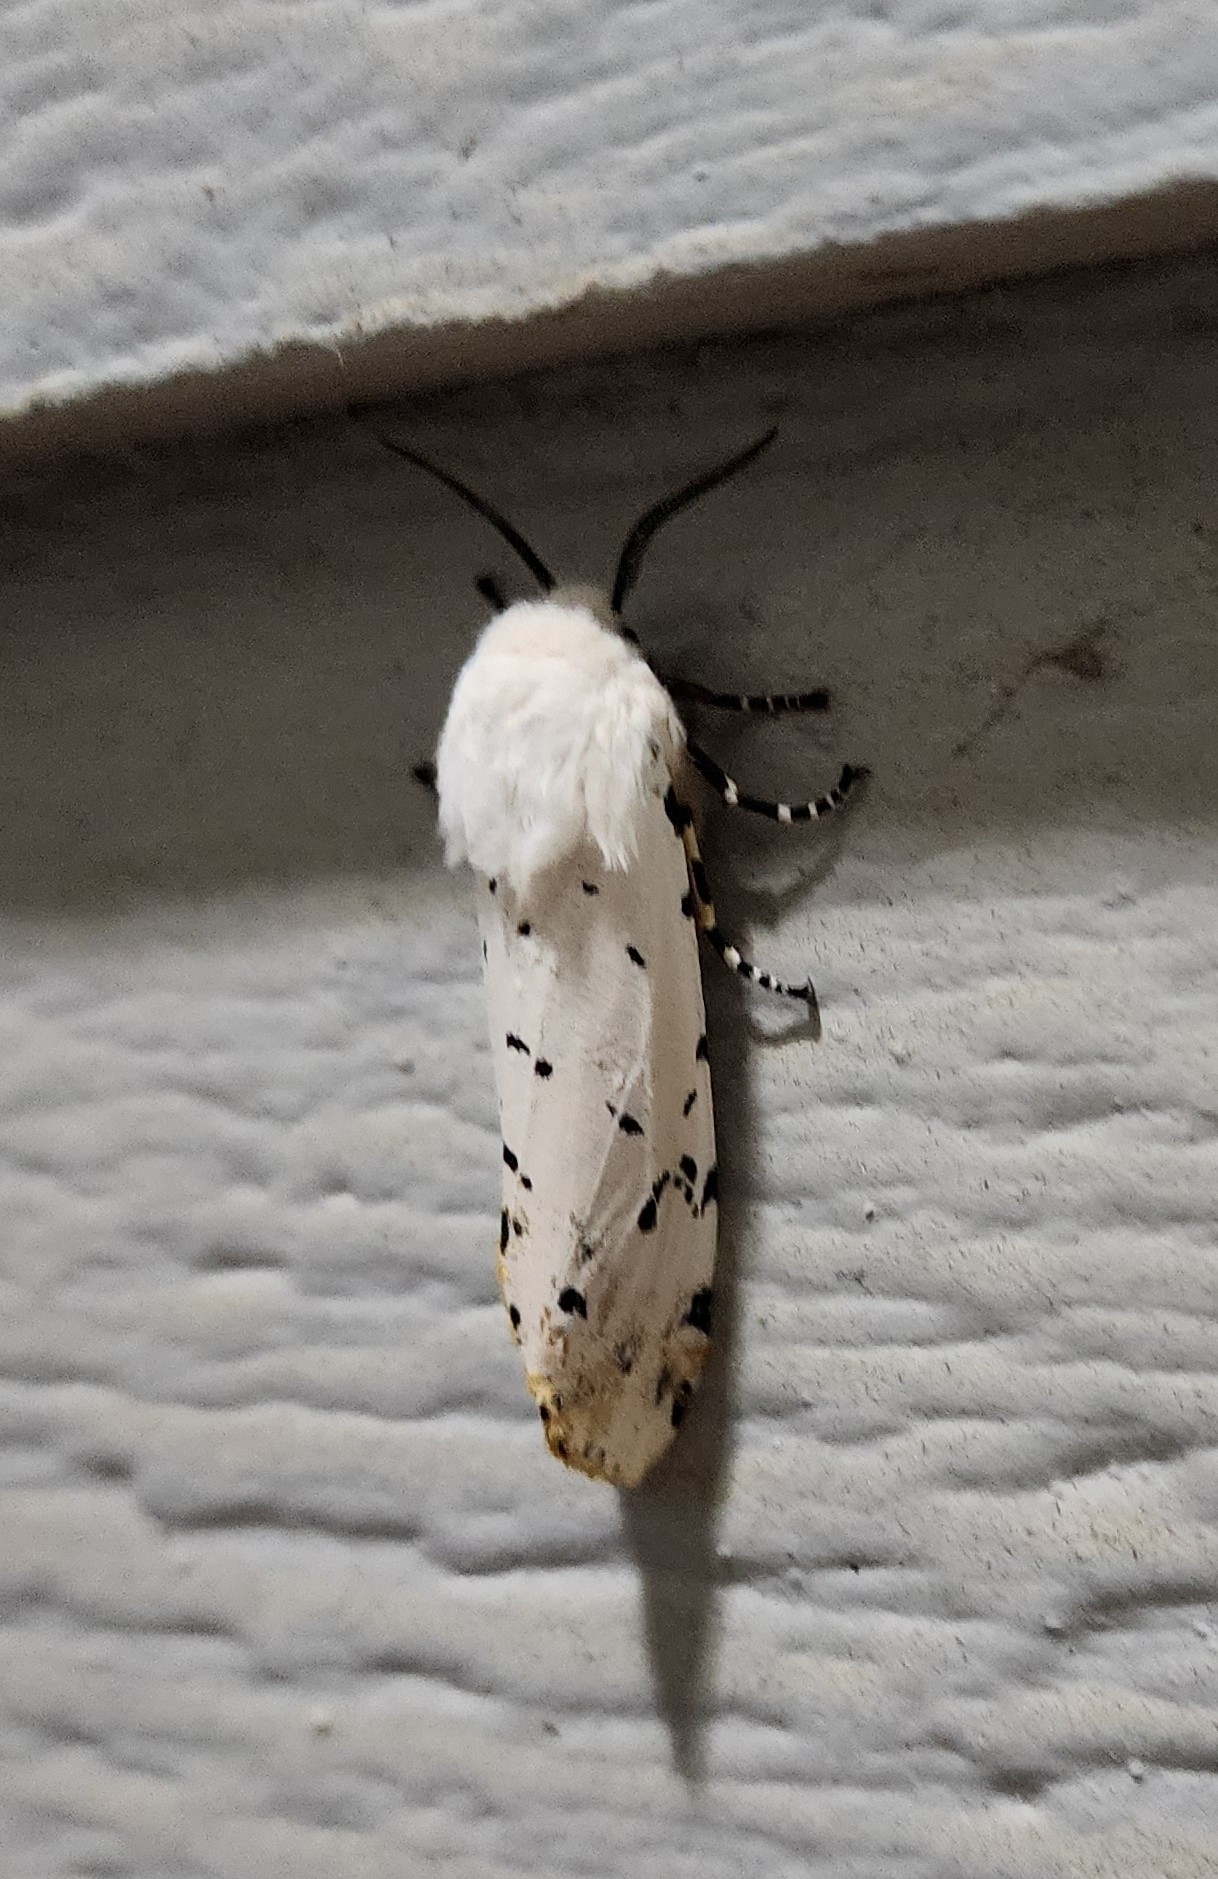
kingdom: Animalia
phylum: Arthropoda
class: Insecta
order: Lepidoptera
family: Erebidae
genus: Estigmene
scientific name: Estigmene acrea
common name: Salt marsh moth
